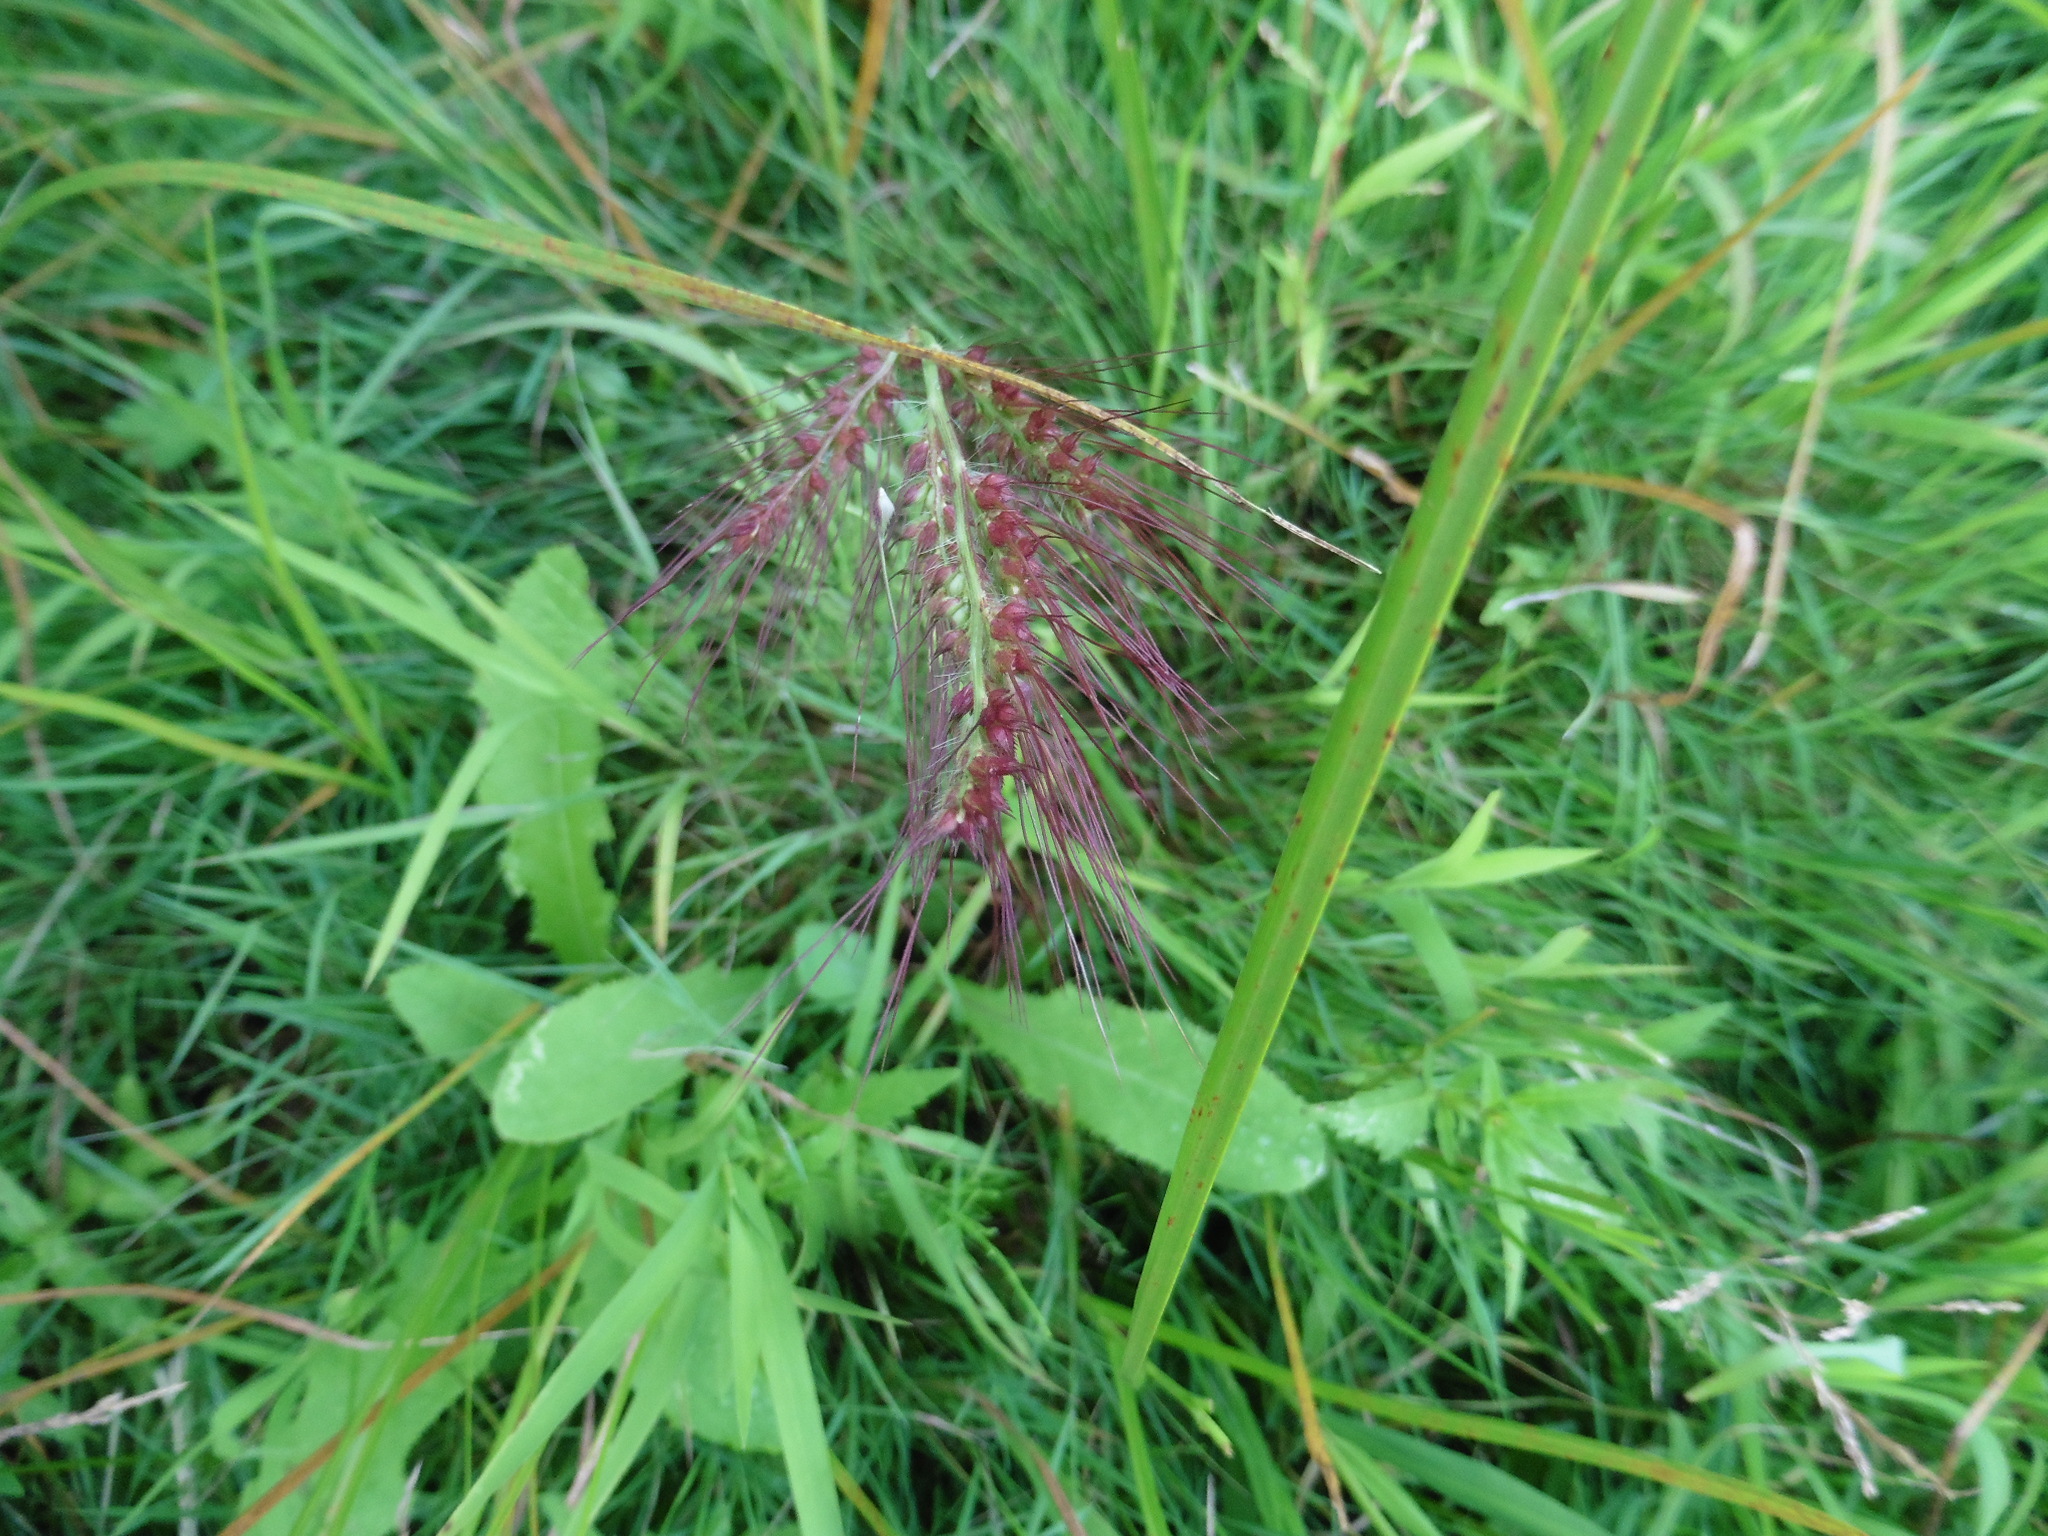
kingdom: Plantae
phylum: Tracheophyta
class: Liliopsida
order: Poales
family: Poaceae
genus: Echinochloa
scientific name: Echinochloa crus-galli
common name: Cockspur
